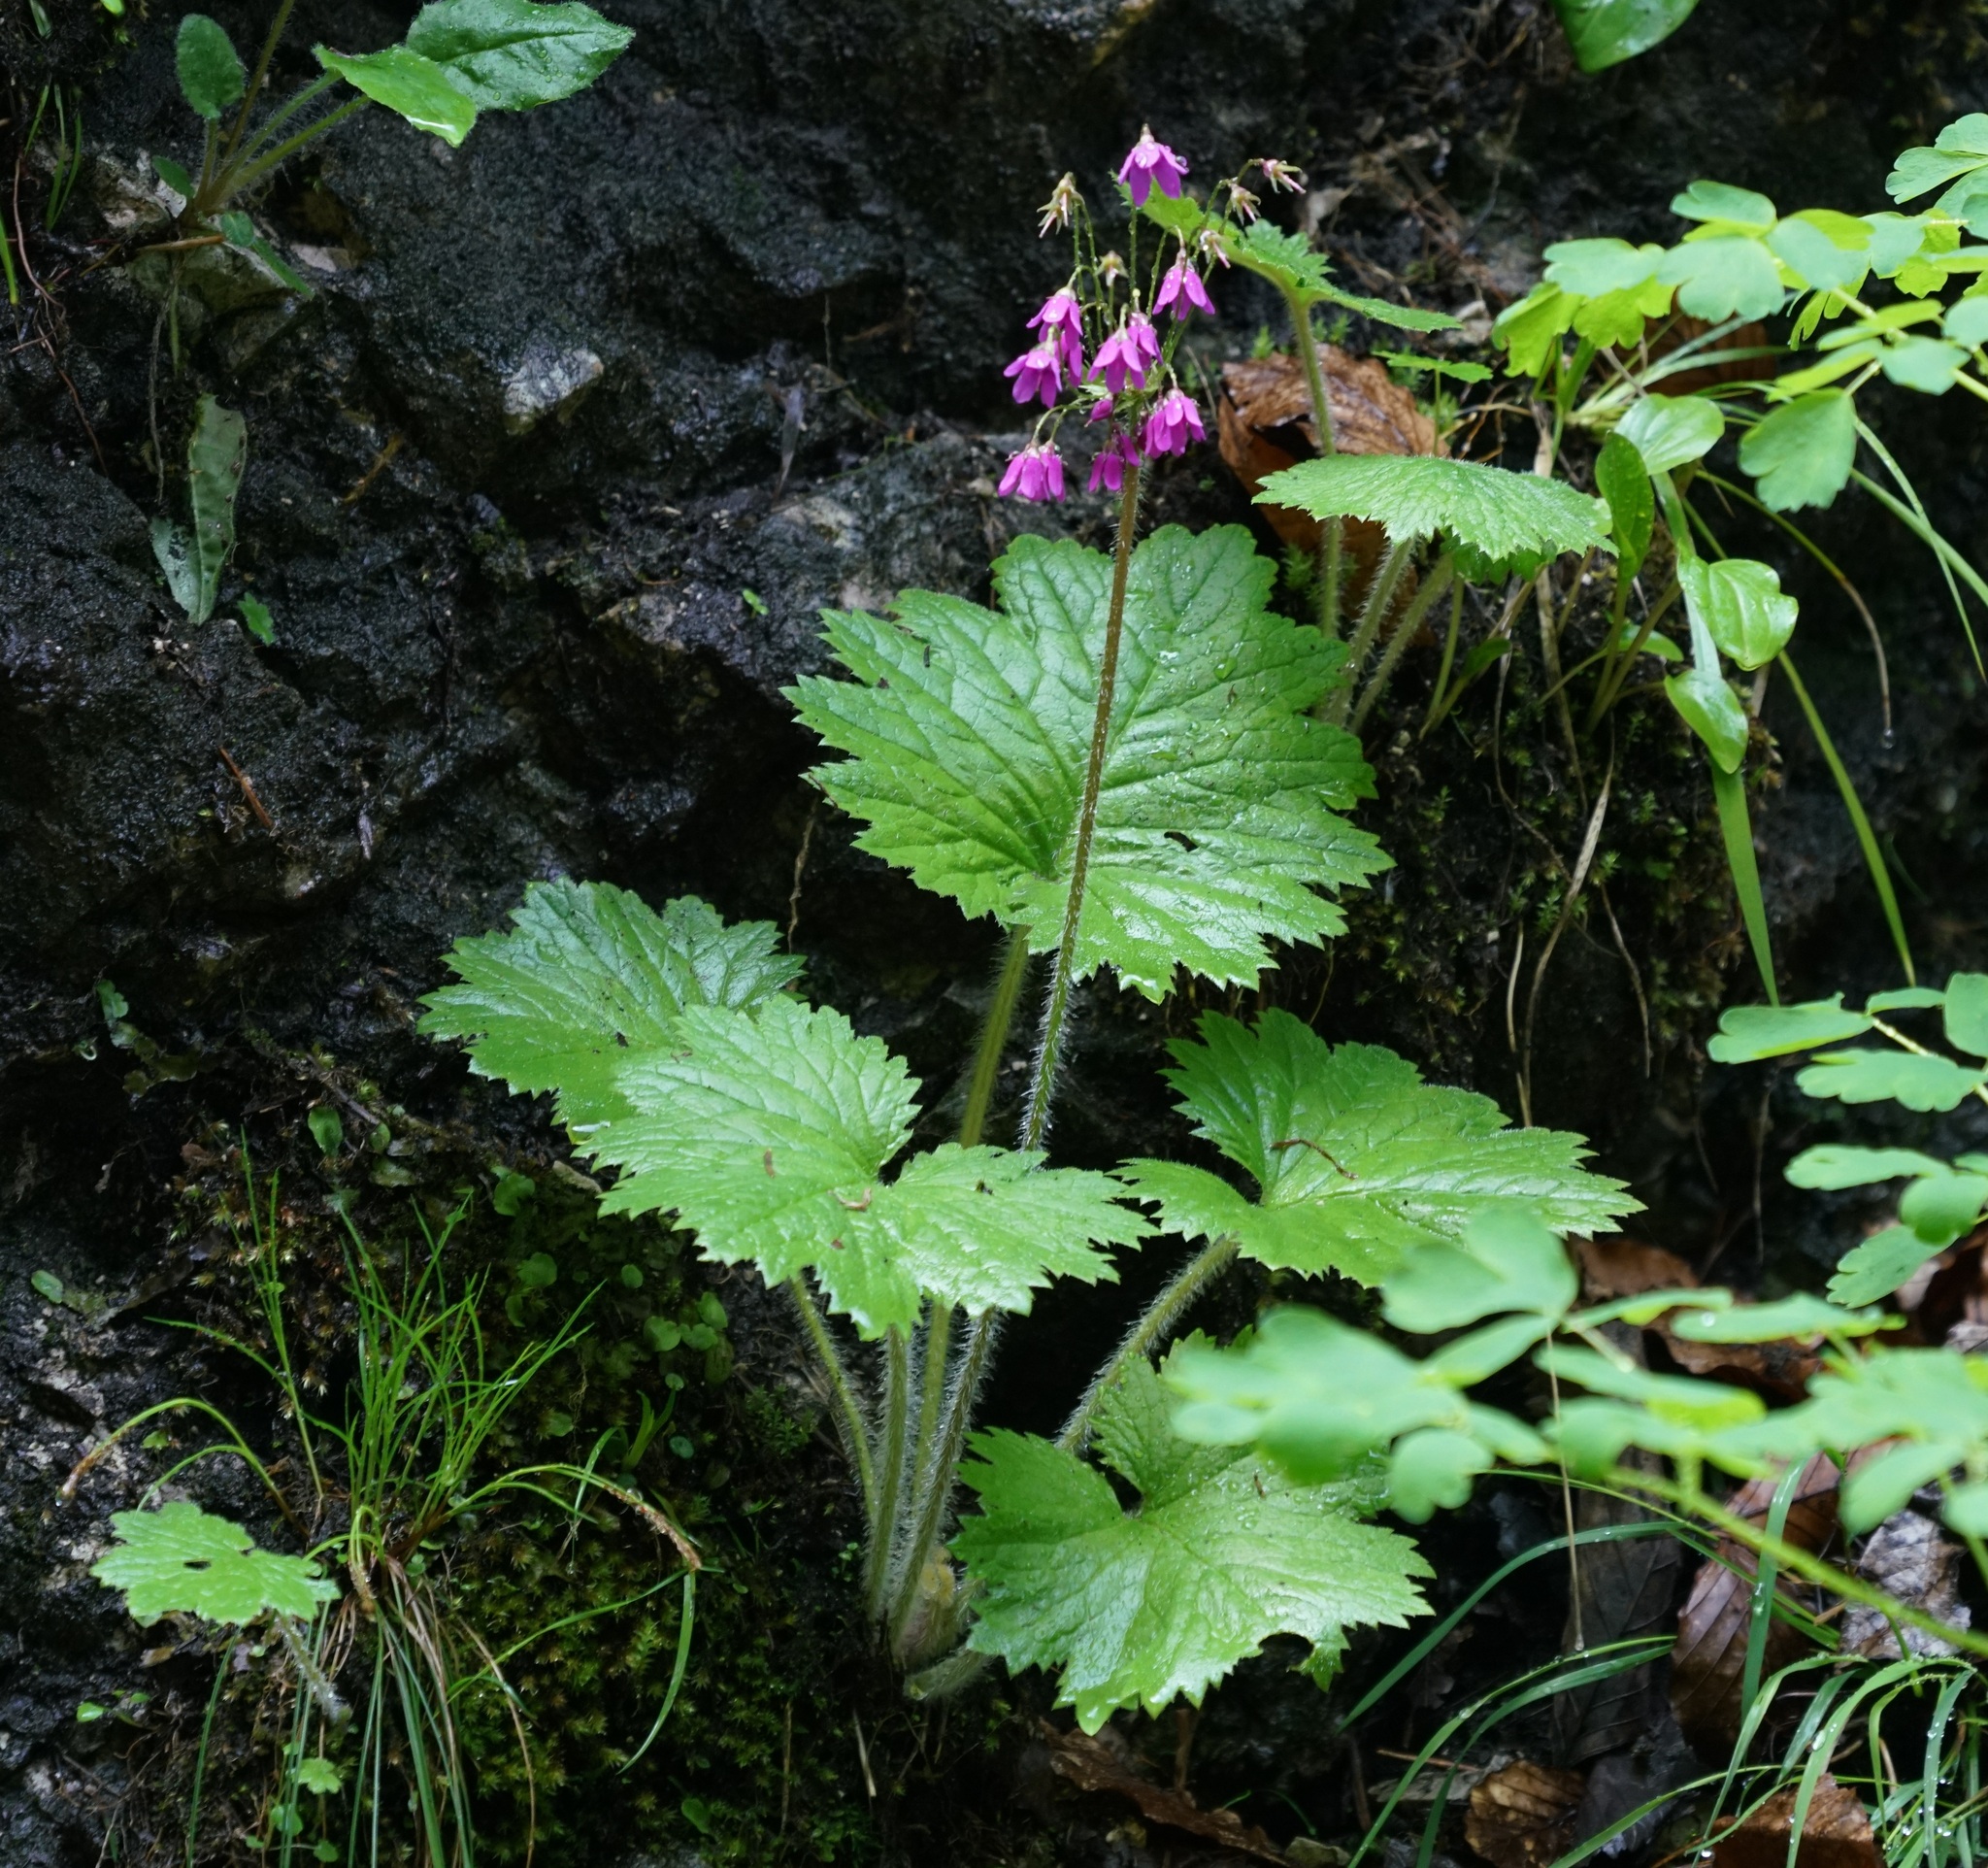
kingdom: Plantae
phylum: Tracheophyta
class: Magnoliopsida
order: Ericales
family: Primulaceae
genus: Primula
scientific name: Primula matthioli
